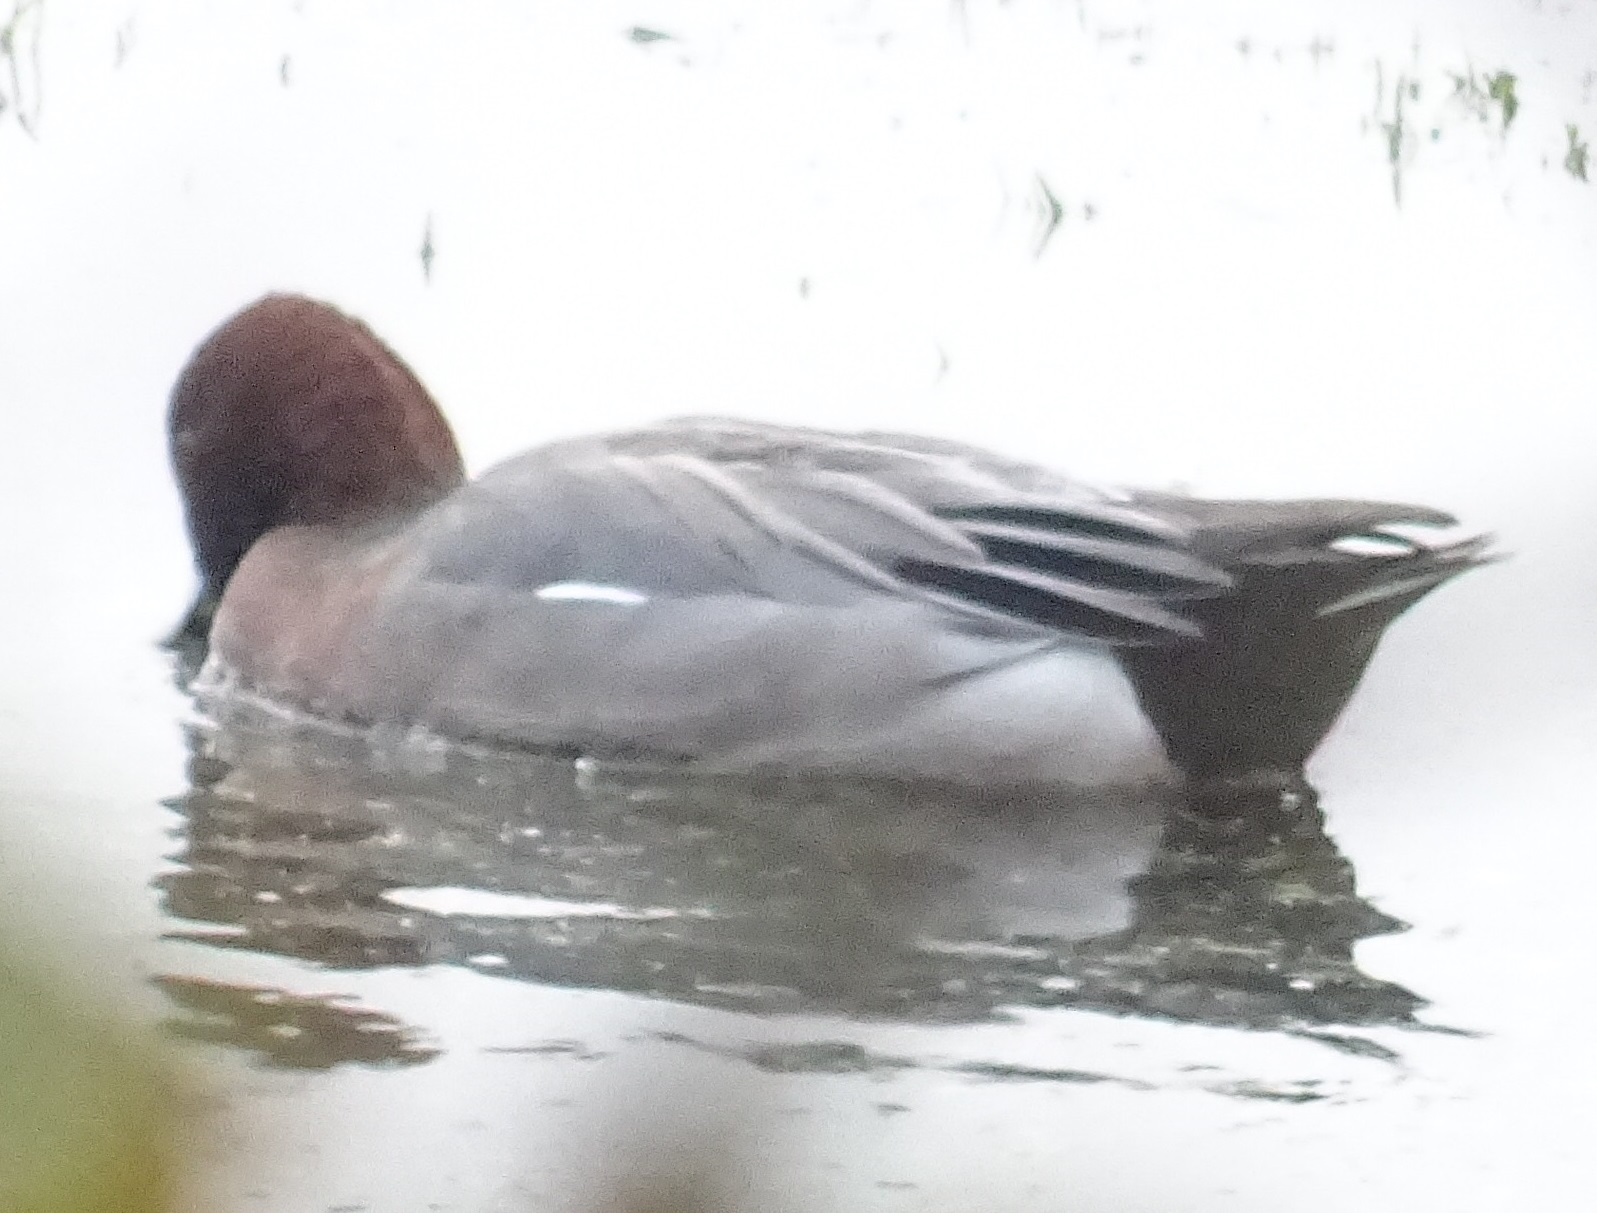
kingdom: Animalia
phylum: Chordata
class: Aves
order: Anseriformes
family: Anatidae
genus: Mareca
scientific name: Mareca penelope
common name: Eurasian wigeon
